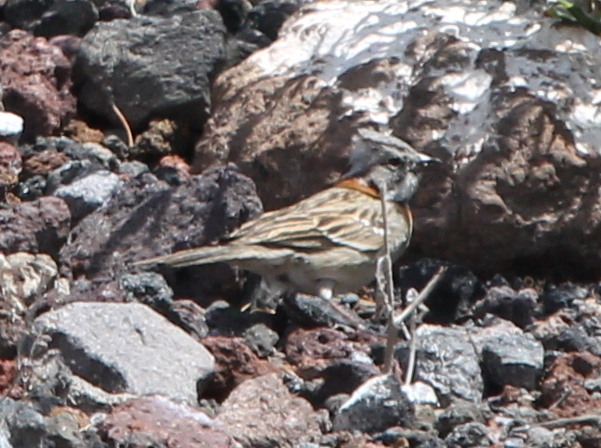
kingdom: Animalia
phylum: Chordata
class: Aves
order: Passeriformes
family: Passerellidae
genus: Zonotrichia
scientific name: Zonotrichia capensis
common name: Rufous-collared sparrow
